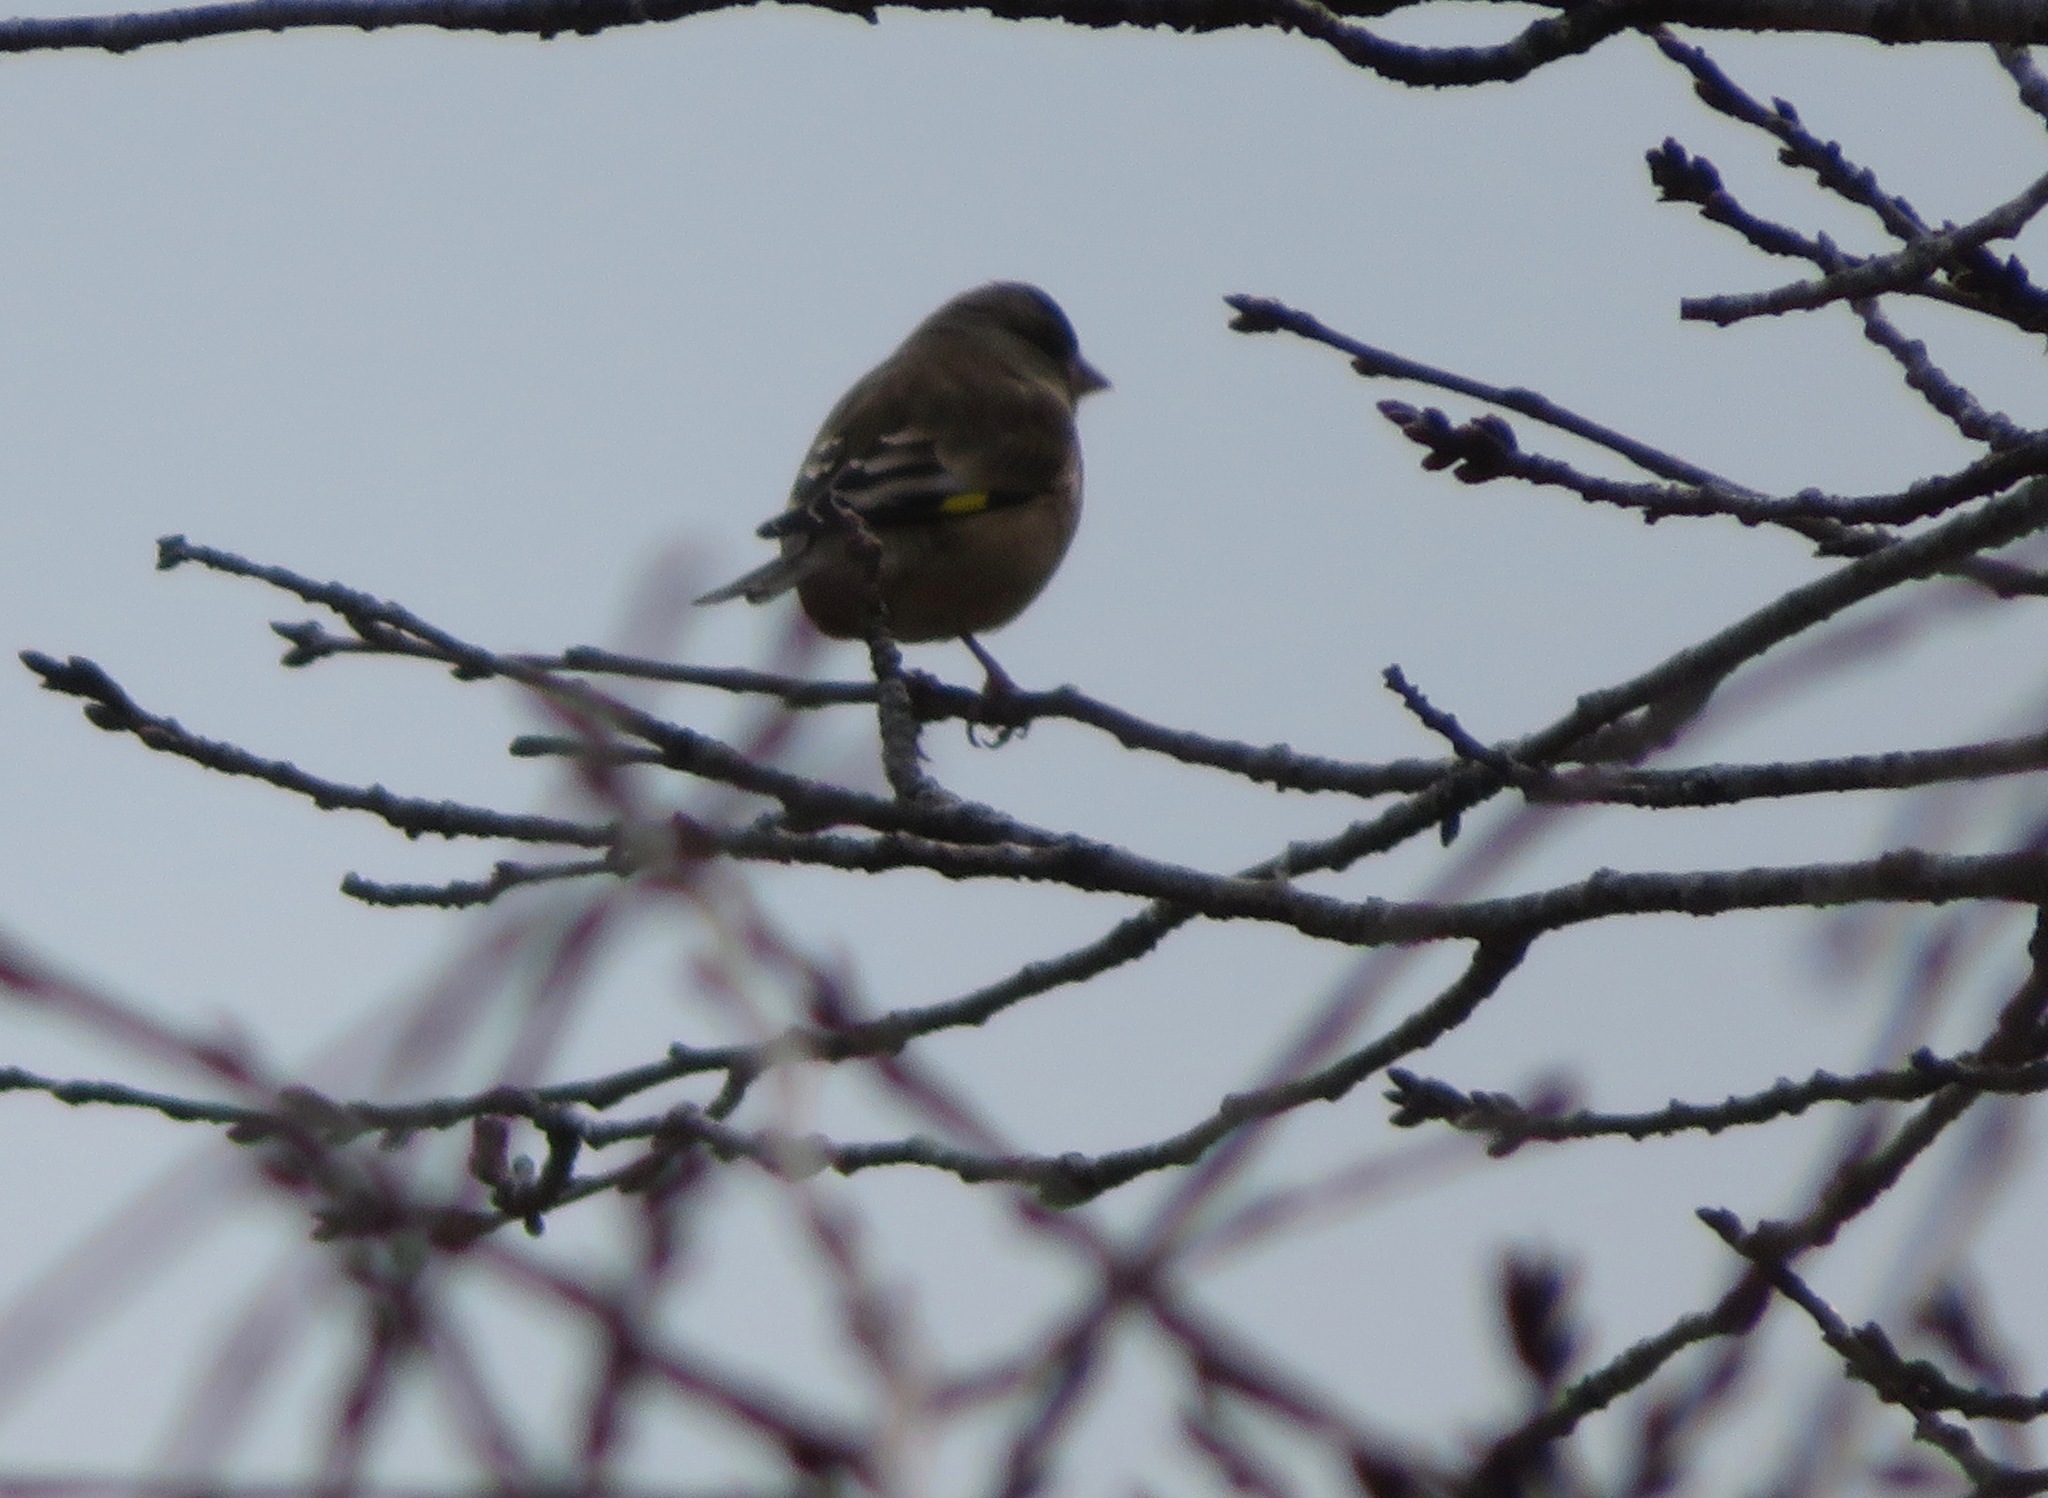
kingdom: Plantae
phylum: Tracheophyta
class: Liliopsida
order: Poales
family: Poaceae
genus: Chloris
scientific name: Chloris sinica
